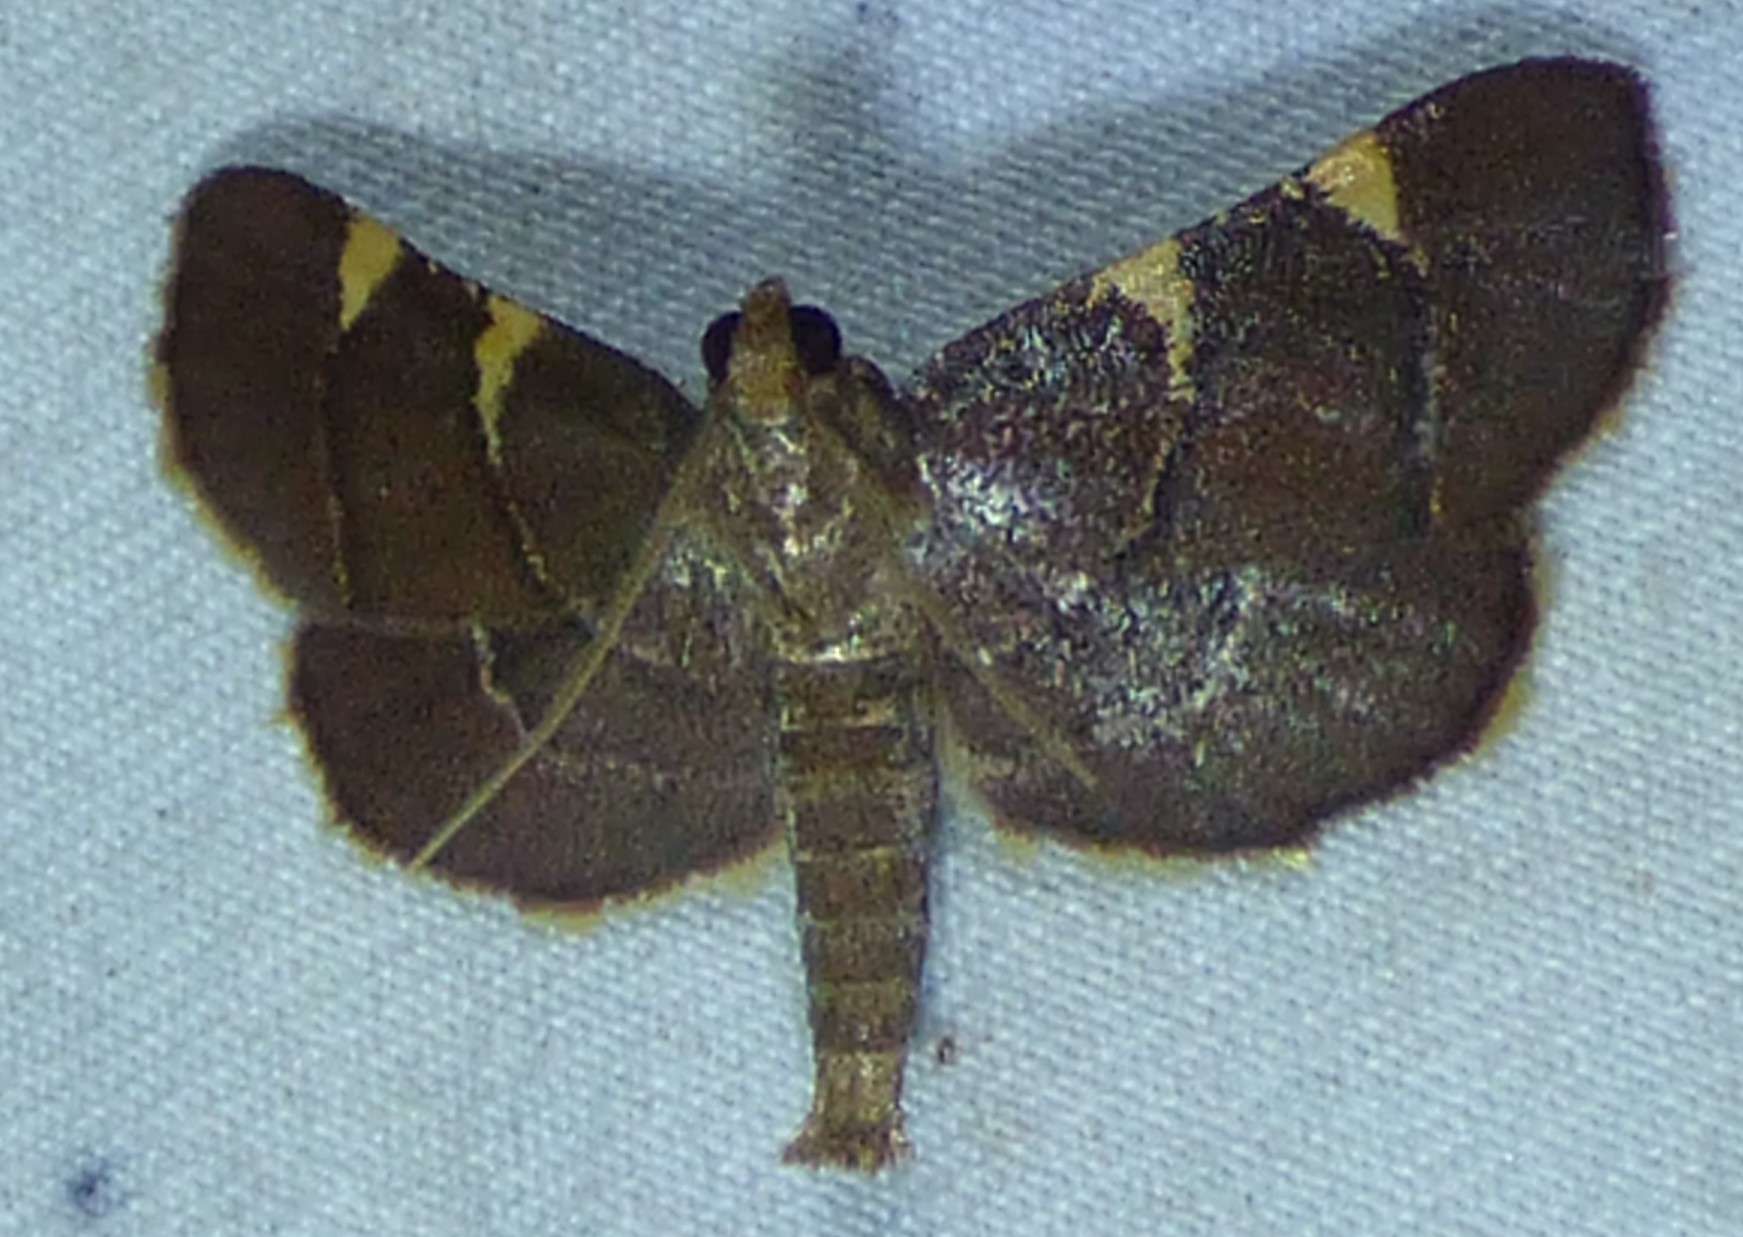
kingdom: Animalia
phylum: Arthropoda
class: Insecta
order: Lepidoptera
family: Pyralidae
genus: Hypsopygia
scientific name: Hypsopygia olinalis
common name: Yellow-fringed dolichomia moth
